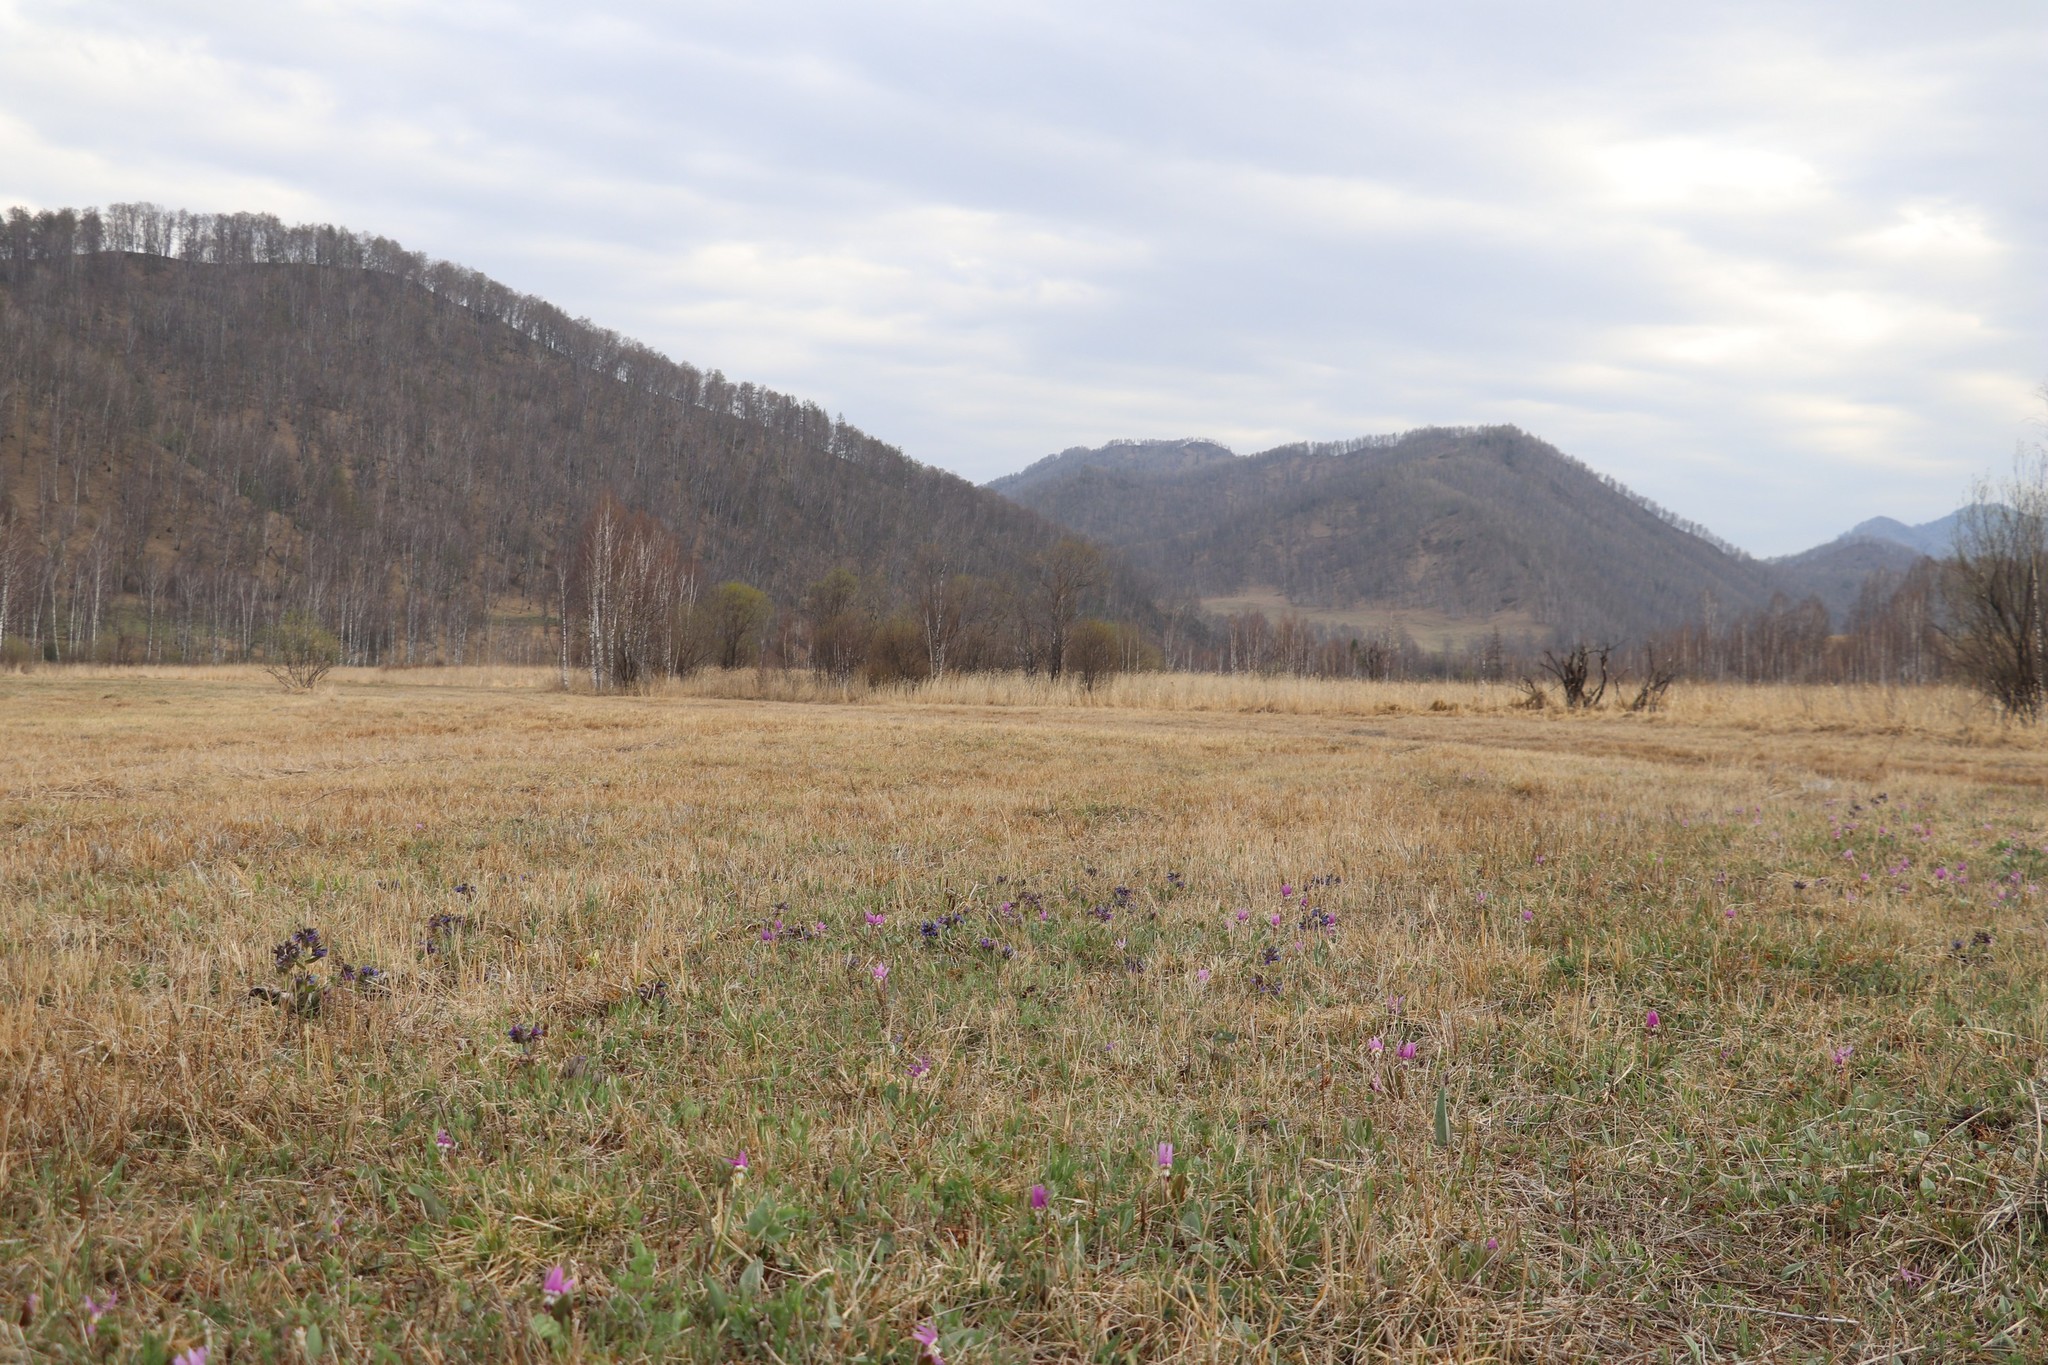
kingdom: Plantae
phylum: Tracheophyta
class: Liliopsida
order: Liliales
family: Liliaceae
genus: Erythronium
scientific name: Erythronium sibiricum
